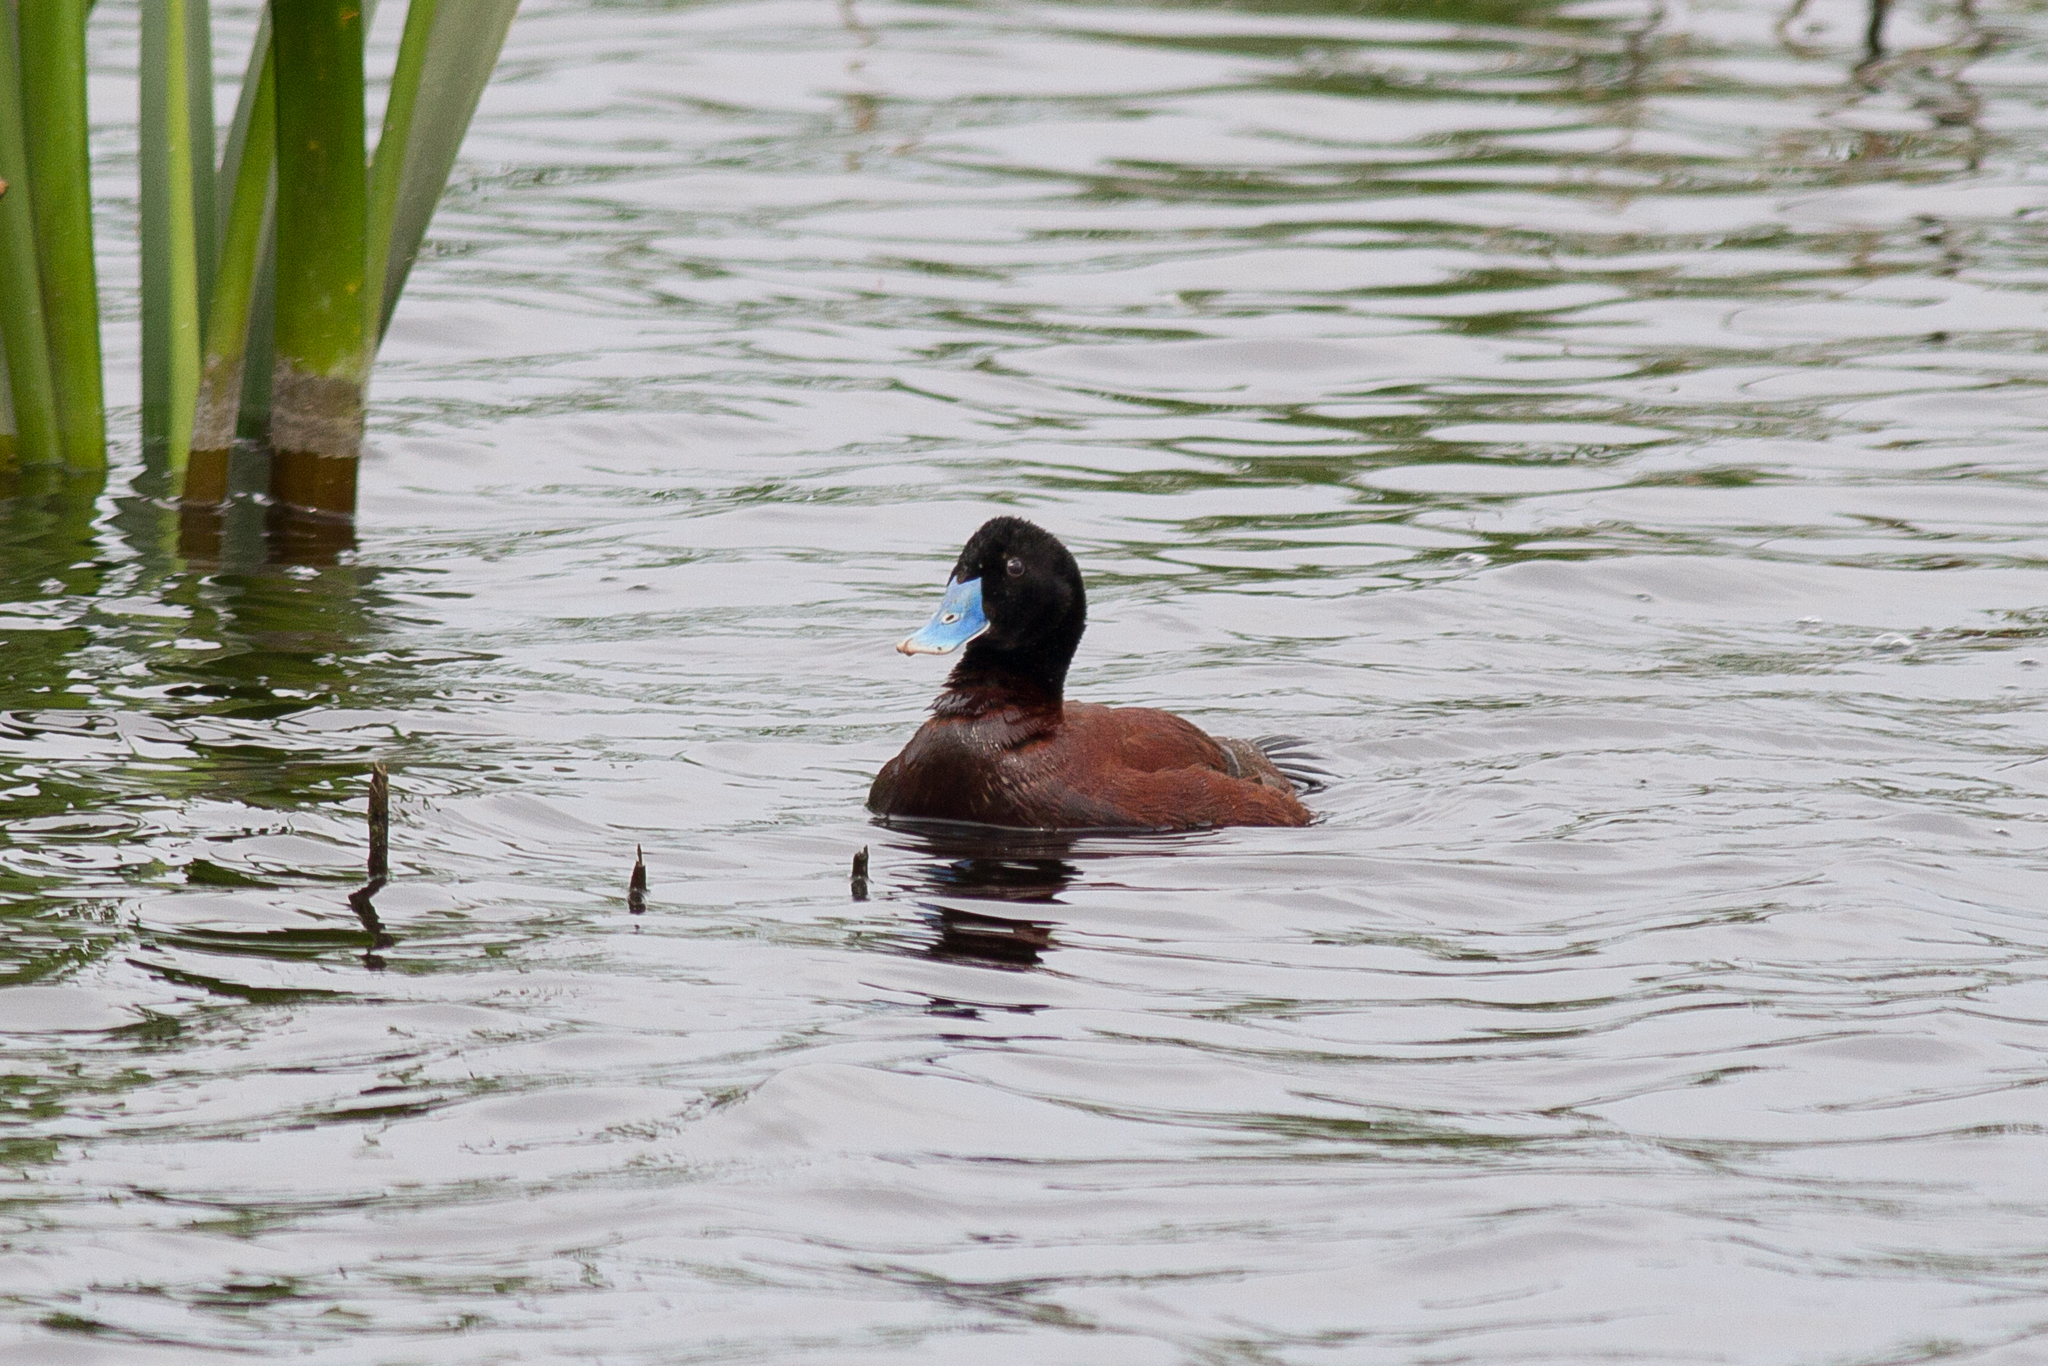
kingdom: Animalia
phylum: Chordata
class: Aves
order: Anseriformes
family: Anatidae
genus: Oxyura
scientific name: Oxyura australis
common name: Blue-billed duck
